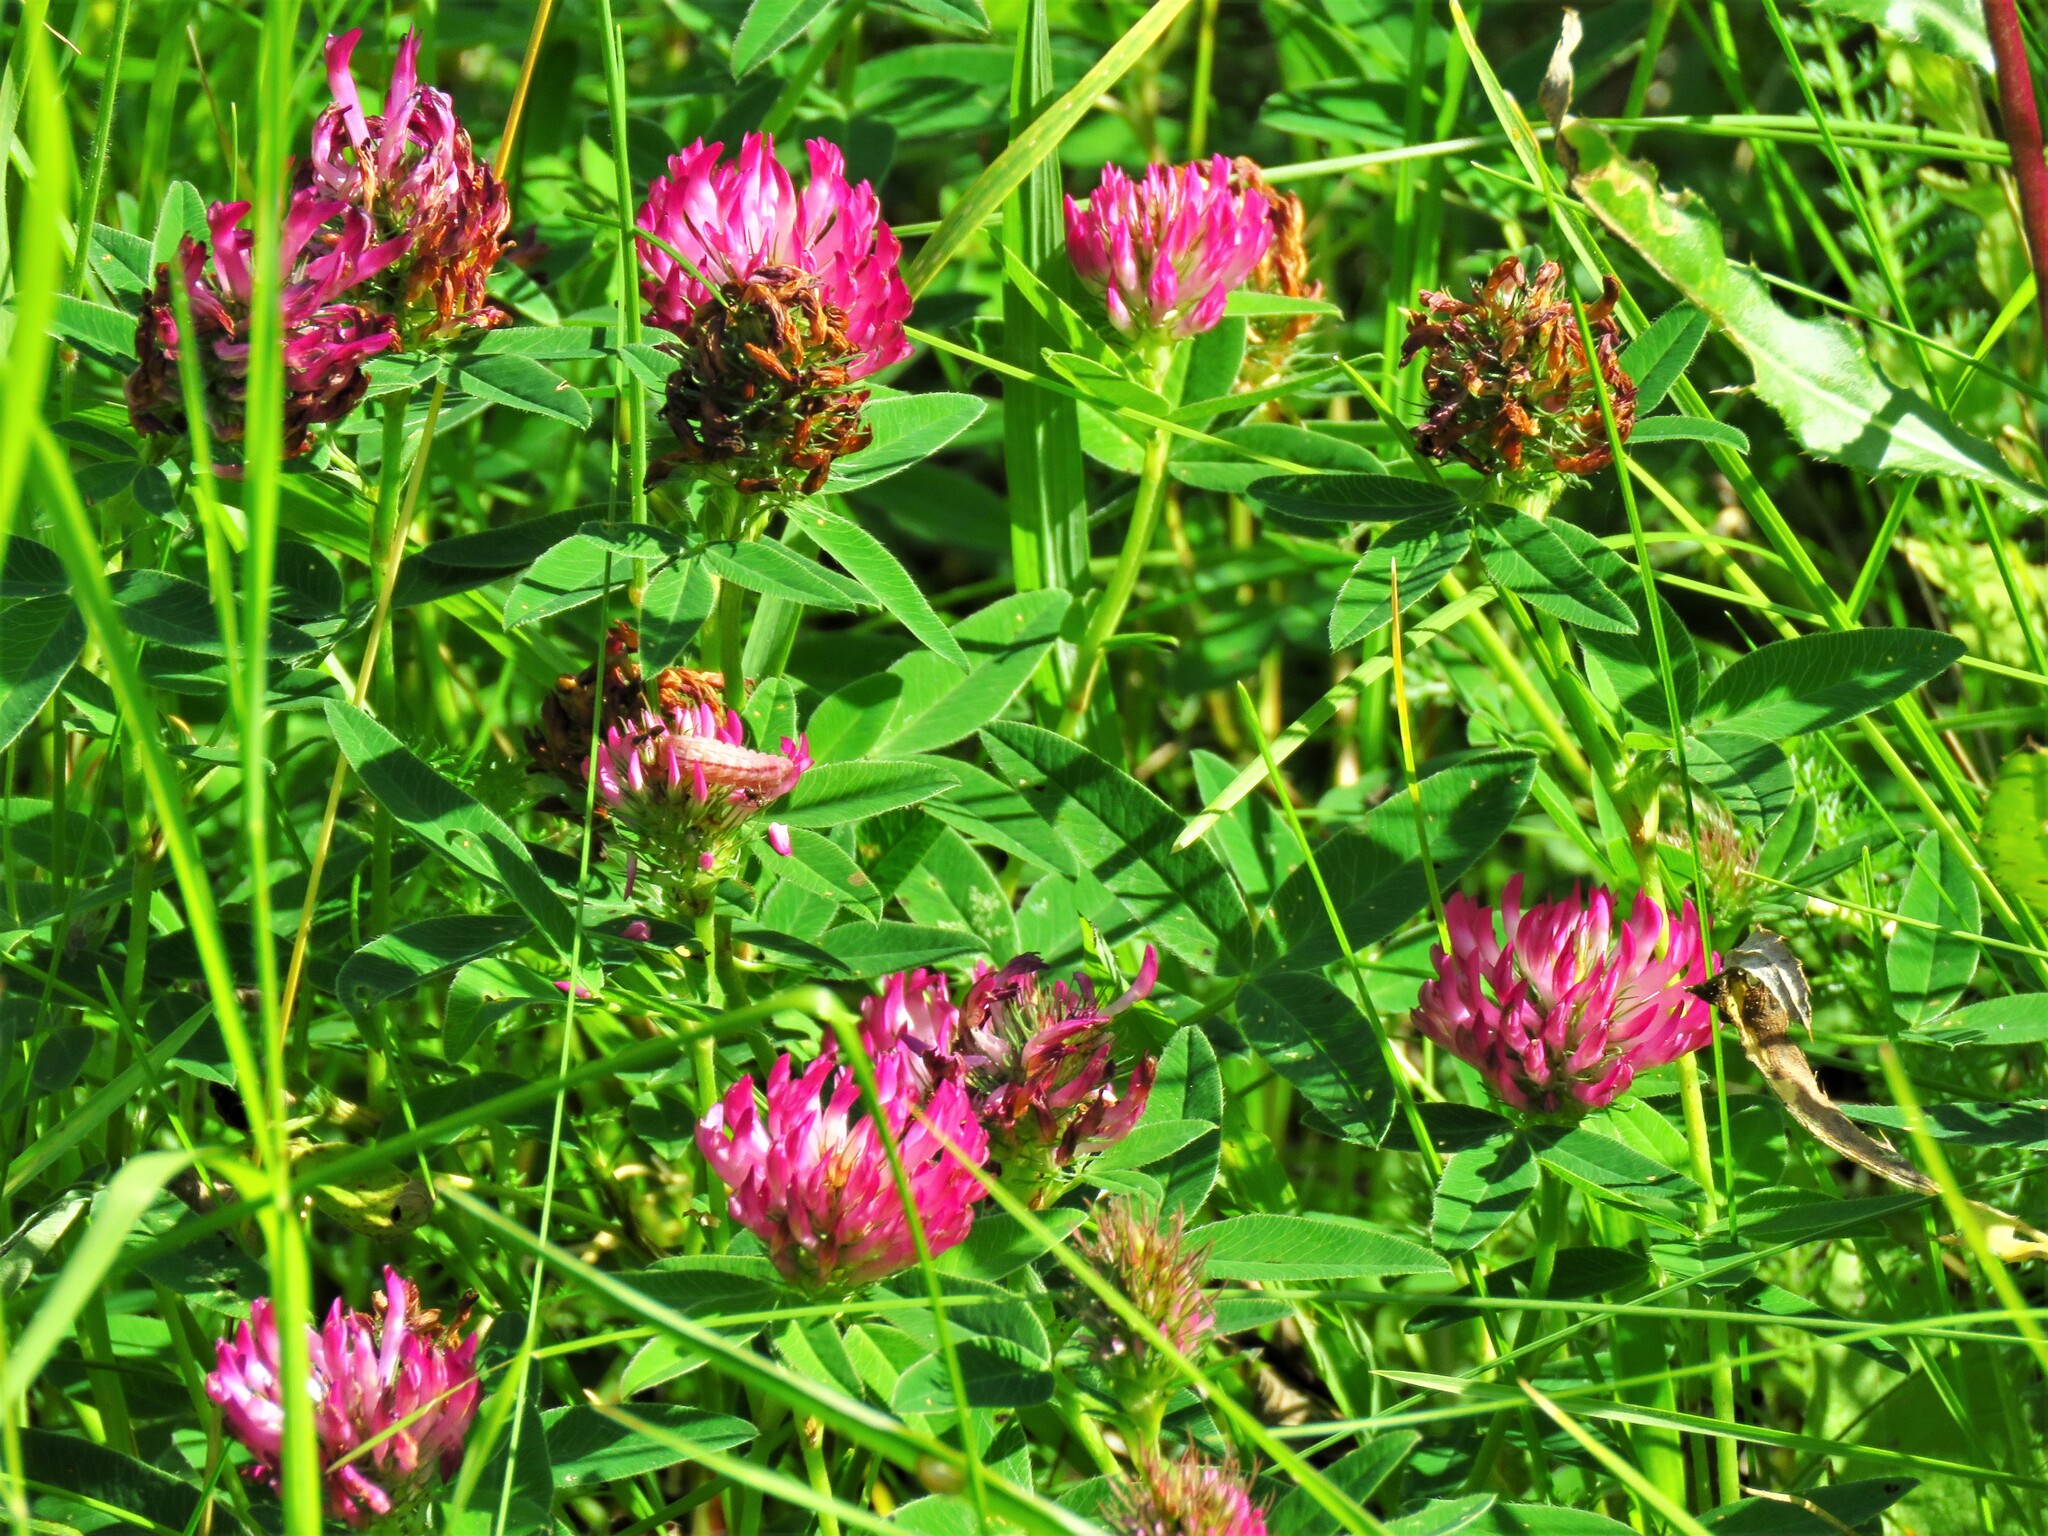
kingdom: Plantae
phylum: Tracheophyta
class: Magnoliopsida
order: Fabales
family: Fabaceae
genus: Trifolium
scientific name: Trifolium medium
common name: Zigzag clover
